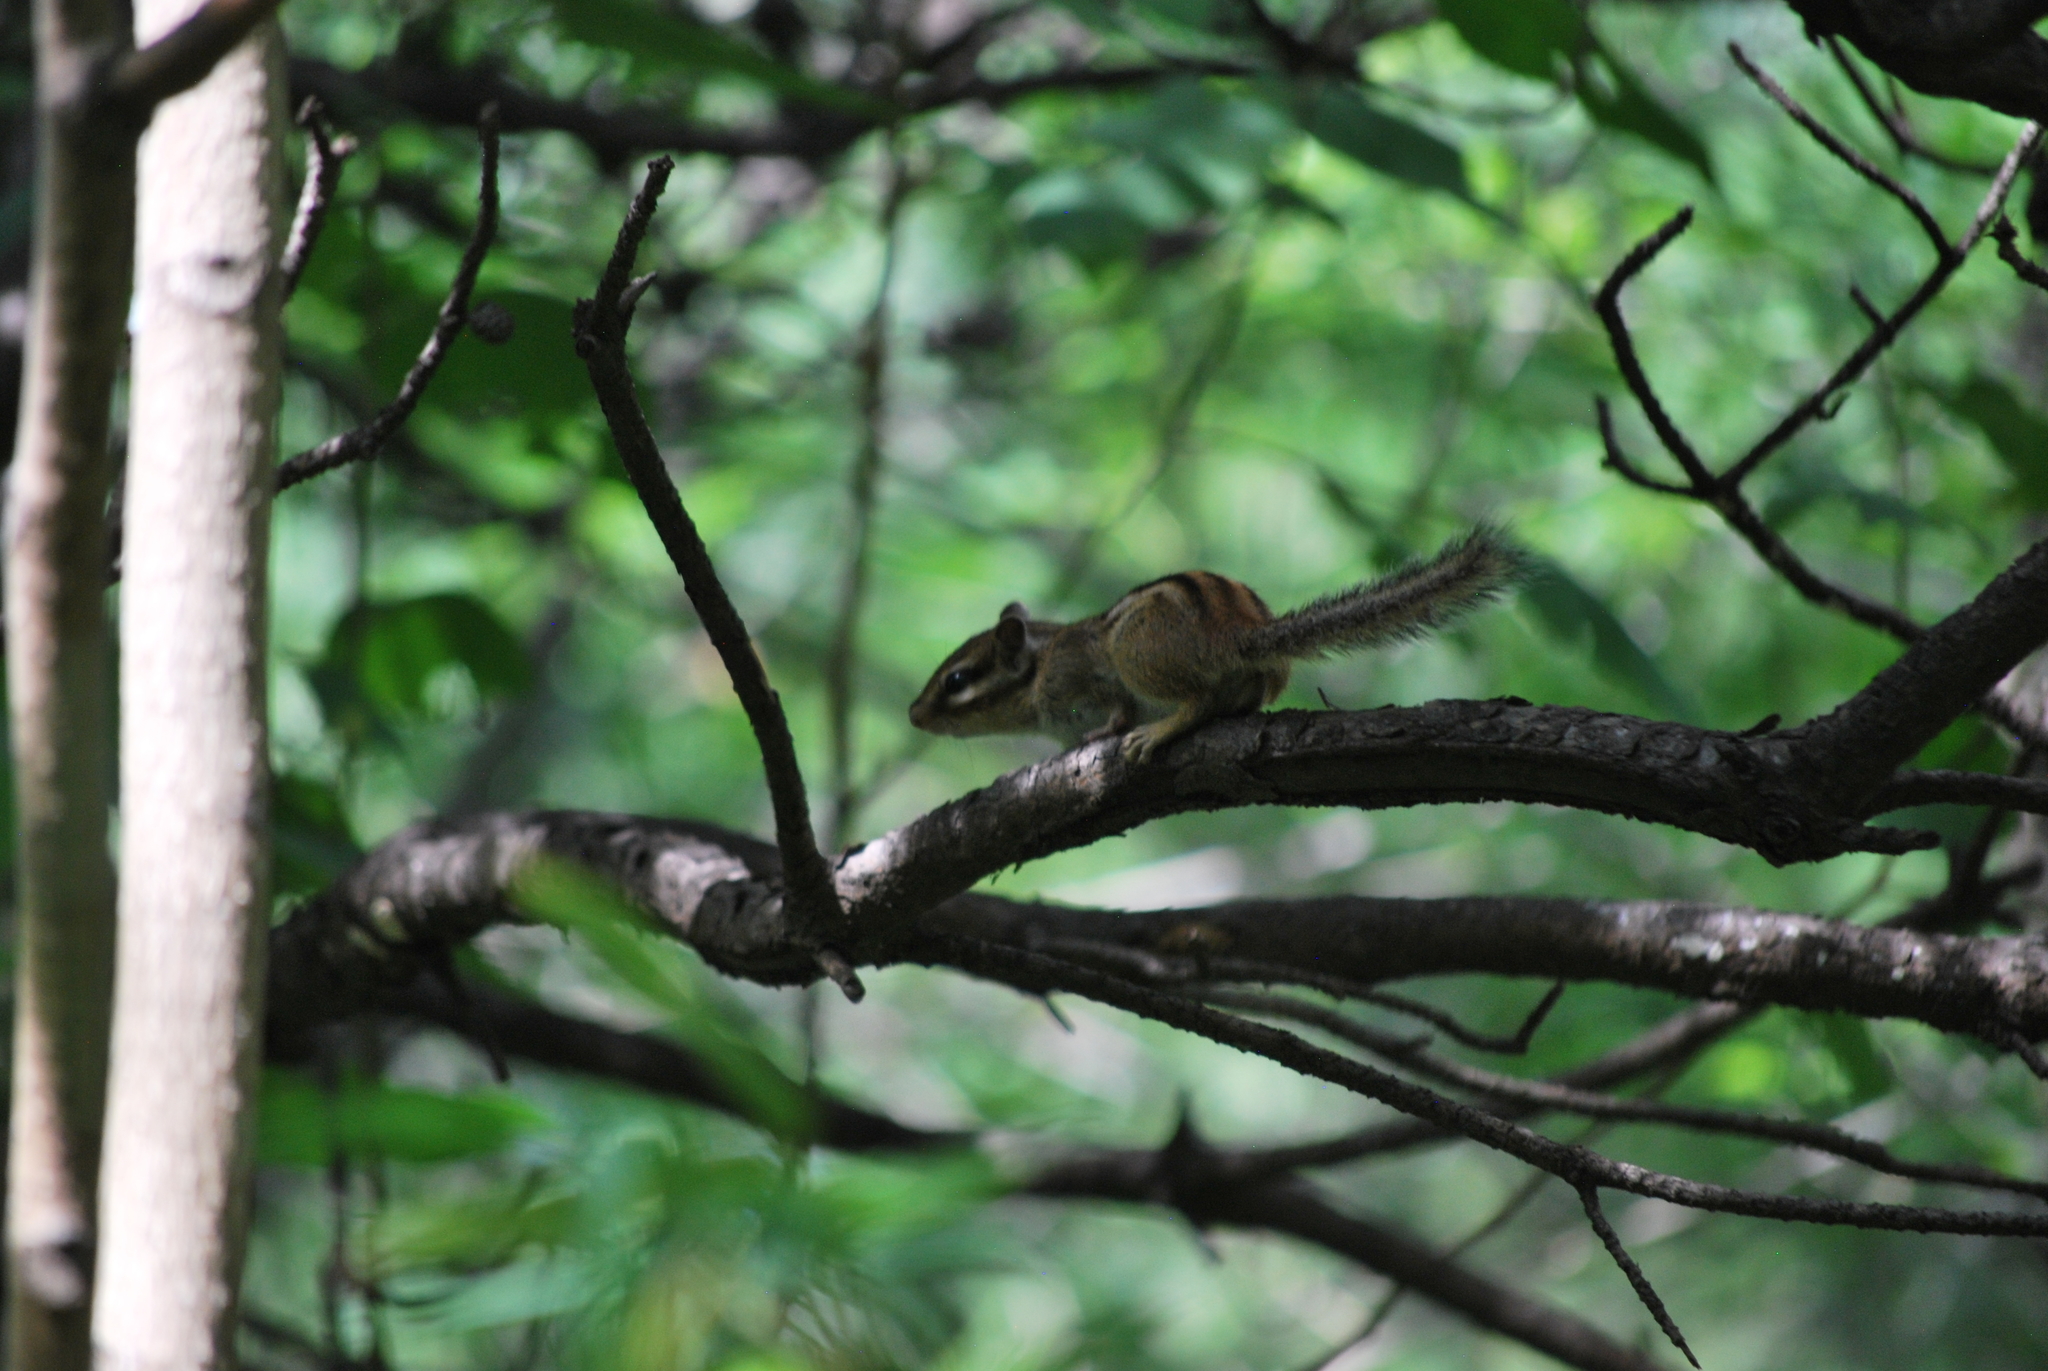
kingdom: Animalia
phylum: Chordata
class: Mammalia
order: Rodentia
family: Sciuridae
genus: Tamias
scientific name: Tamias sibiricus
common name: Siberian chipmunk
